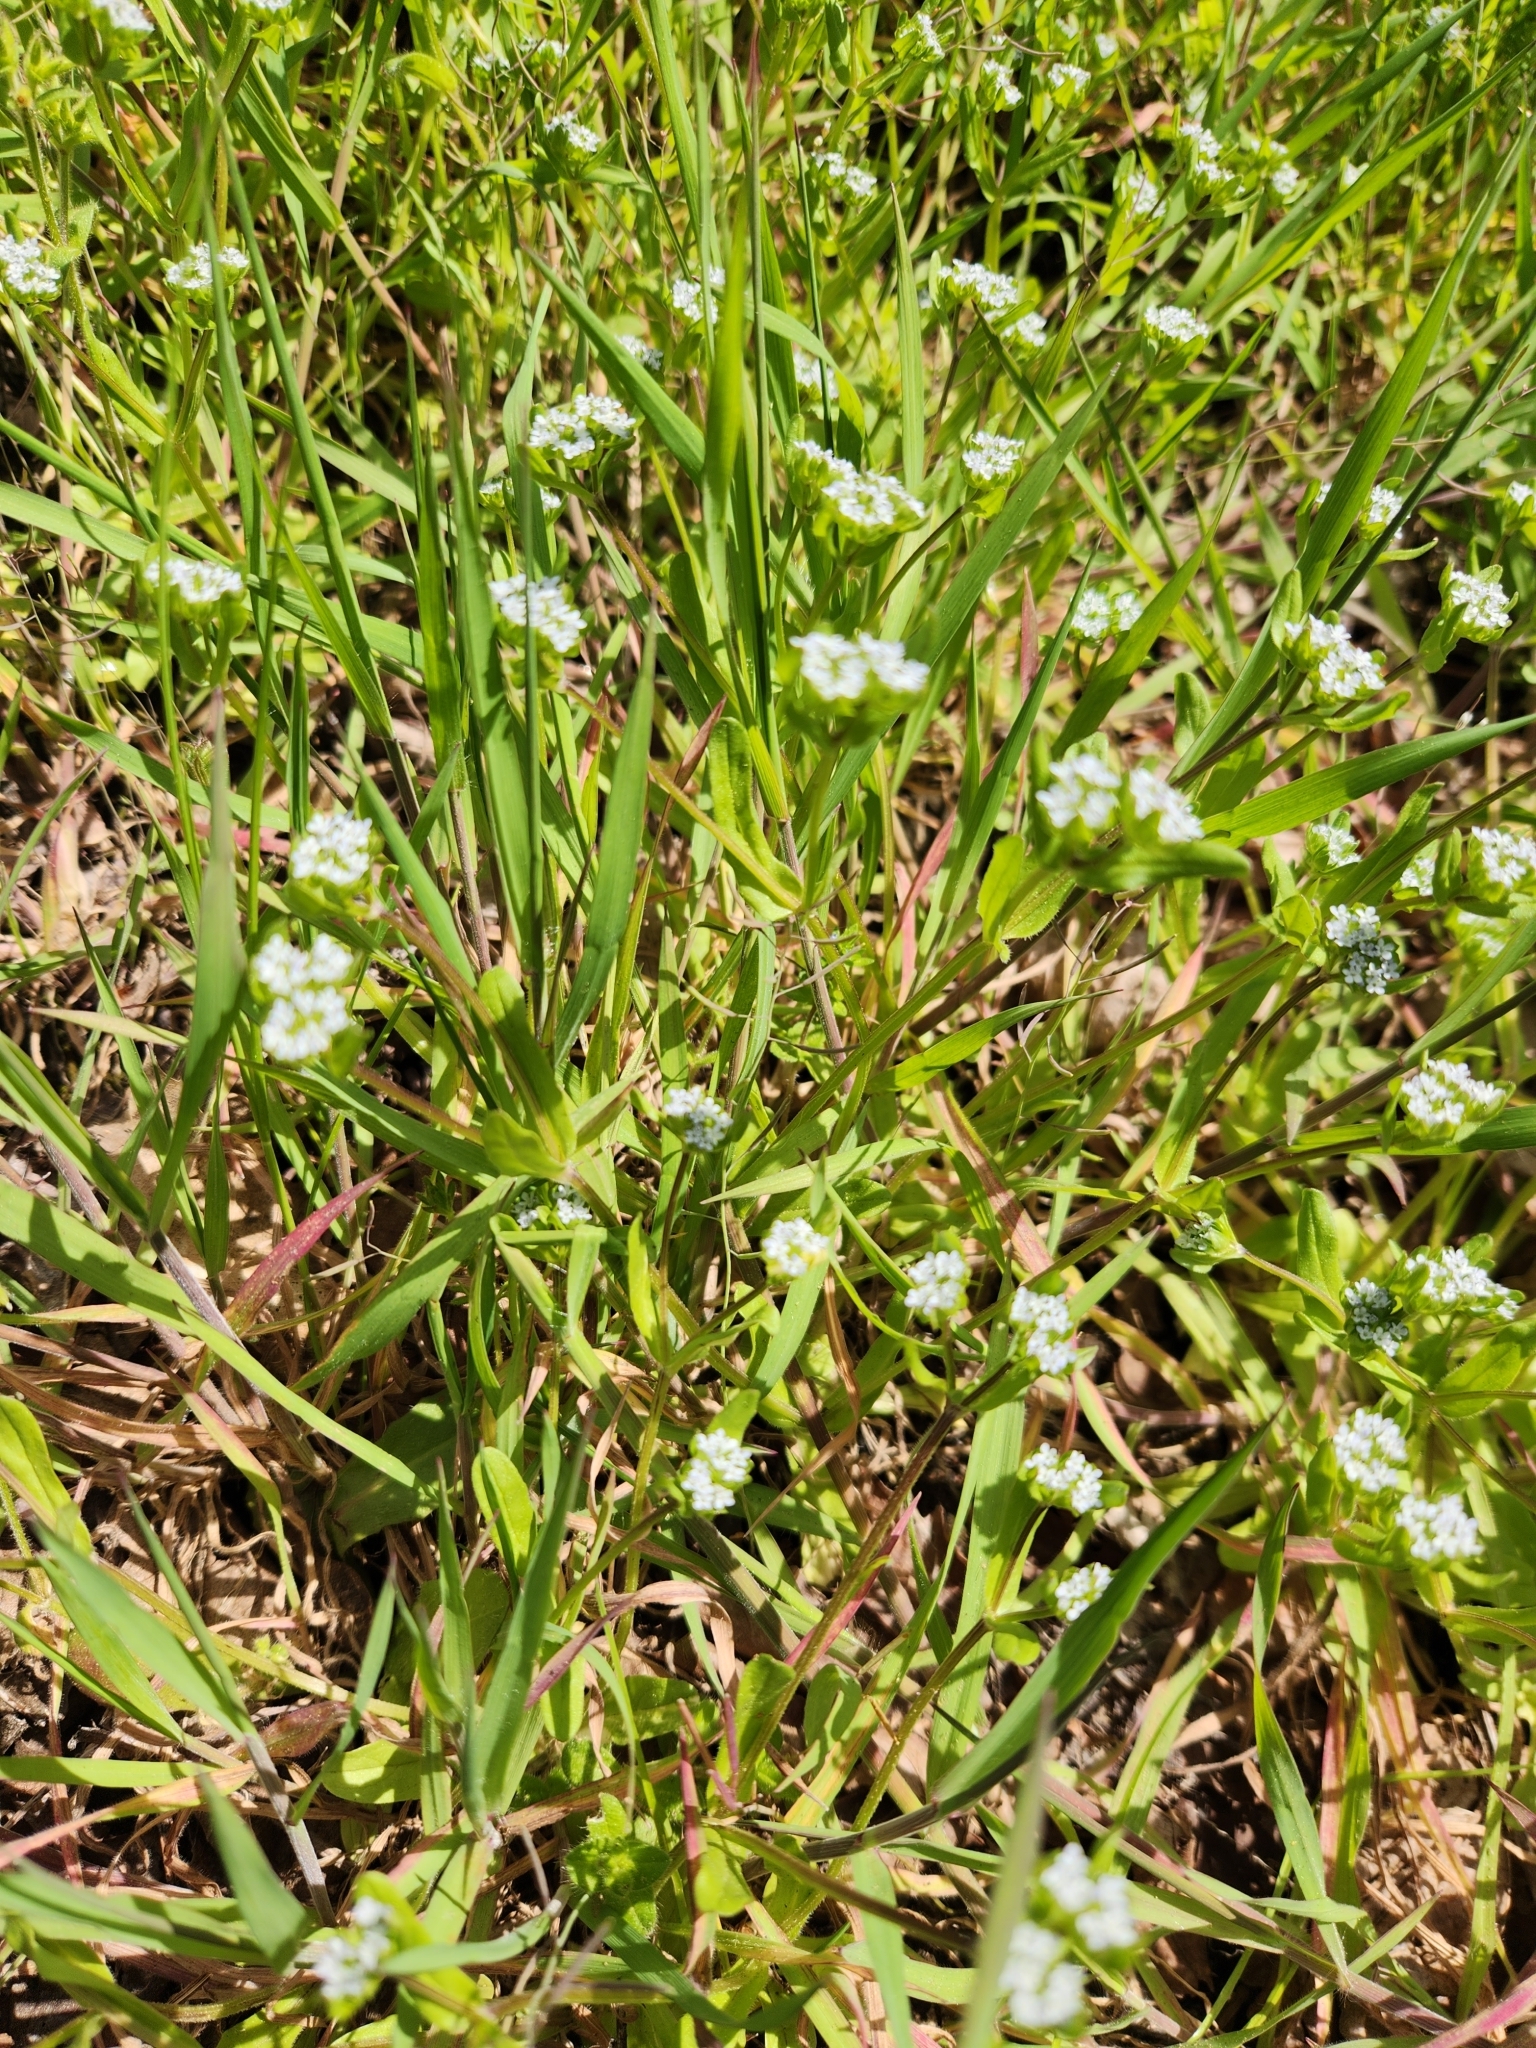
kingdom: Plantae
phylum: Tracheophyta
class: Magnoliopsida
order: Dipsacales
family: Caprifoliaceae
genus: Valerianella
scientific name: Valerianella locusta
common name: Common cornsalad
